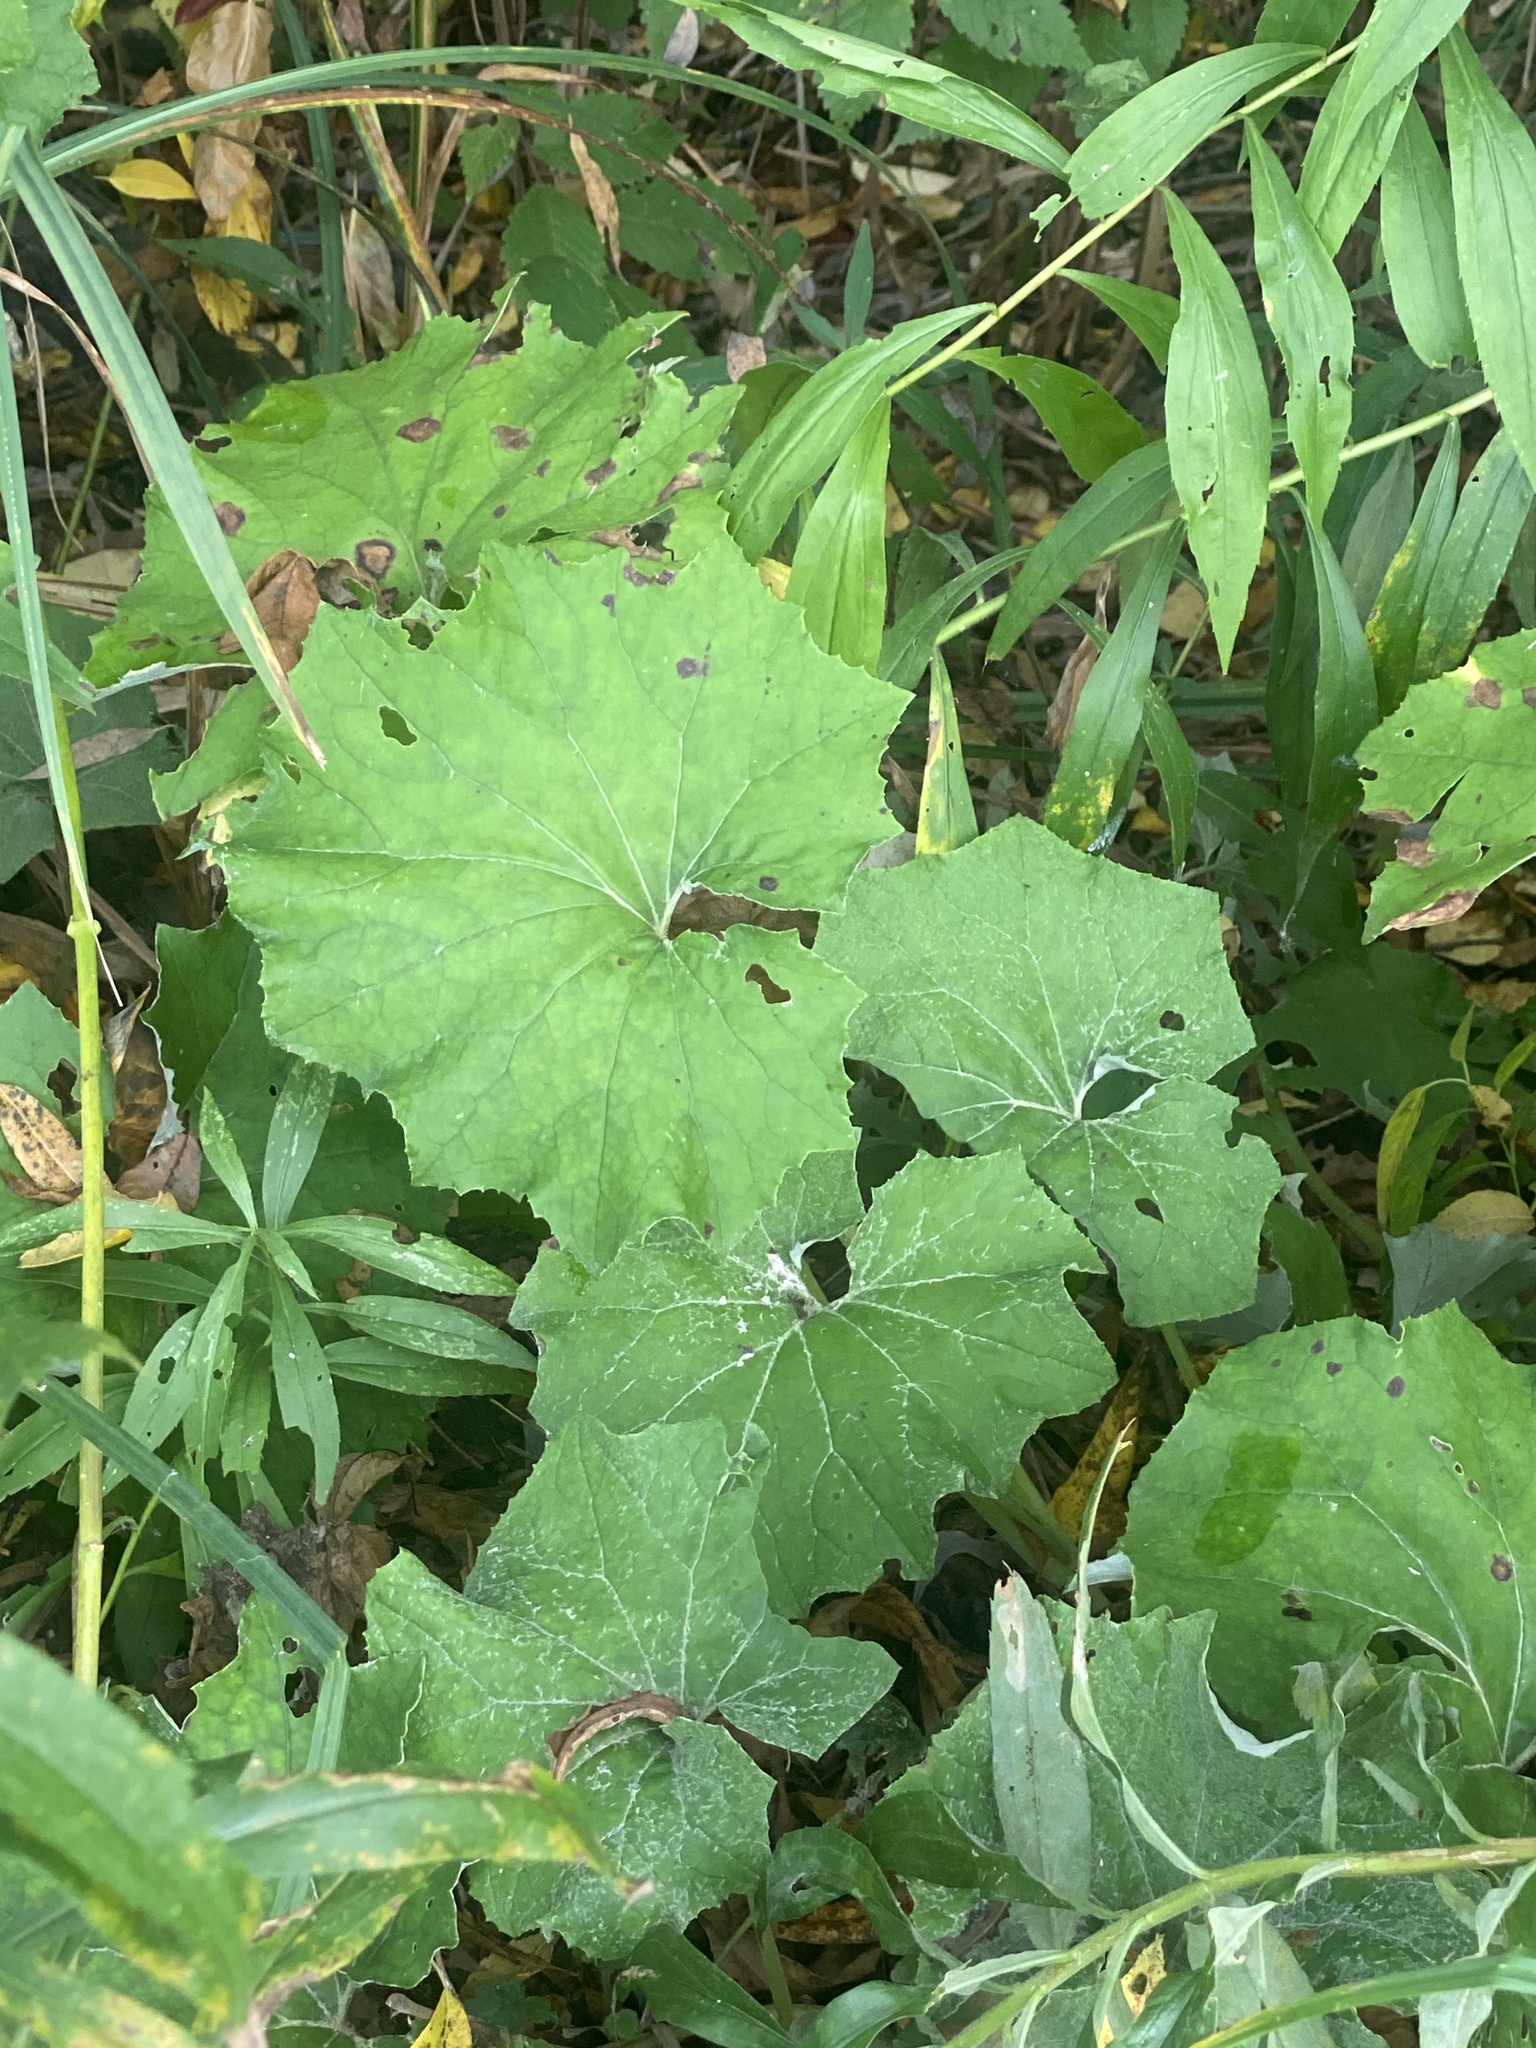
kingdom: Plantae
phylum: Tracheophyta
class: Magnoliopsida
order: Asterales
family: Asteraceae
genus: Tussilago
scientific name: Tussilago farfara
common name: Coltsfoot
